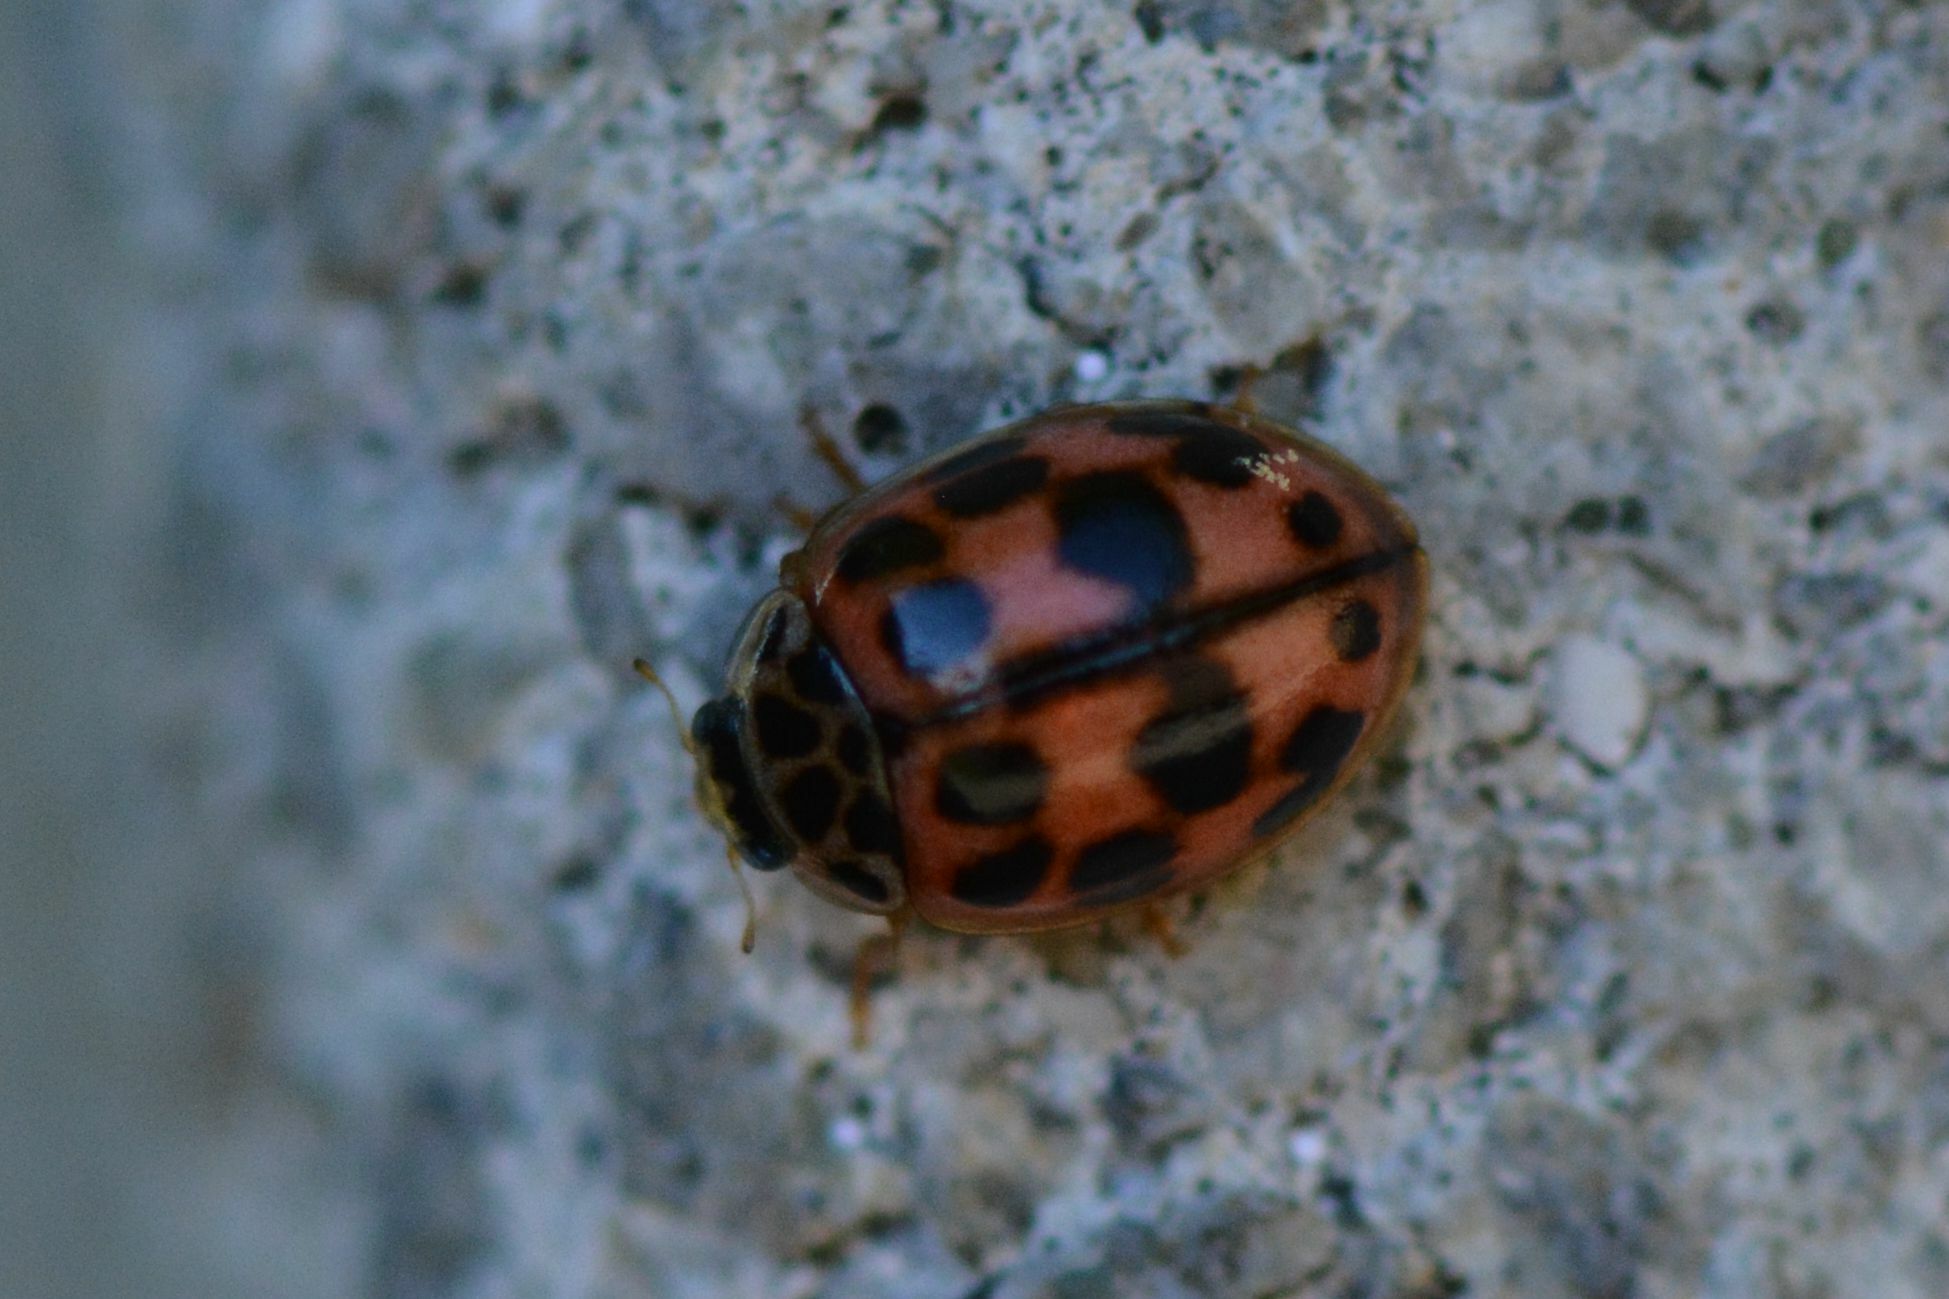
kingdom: Animalia
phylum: Arthropoda
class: Insecta
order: Coleoptera
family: Coccinellidae
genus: Oenopia
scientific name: Oenopia conglobata
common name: Ladybird beetle
